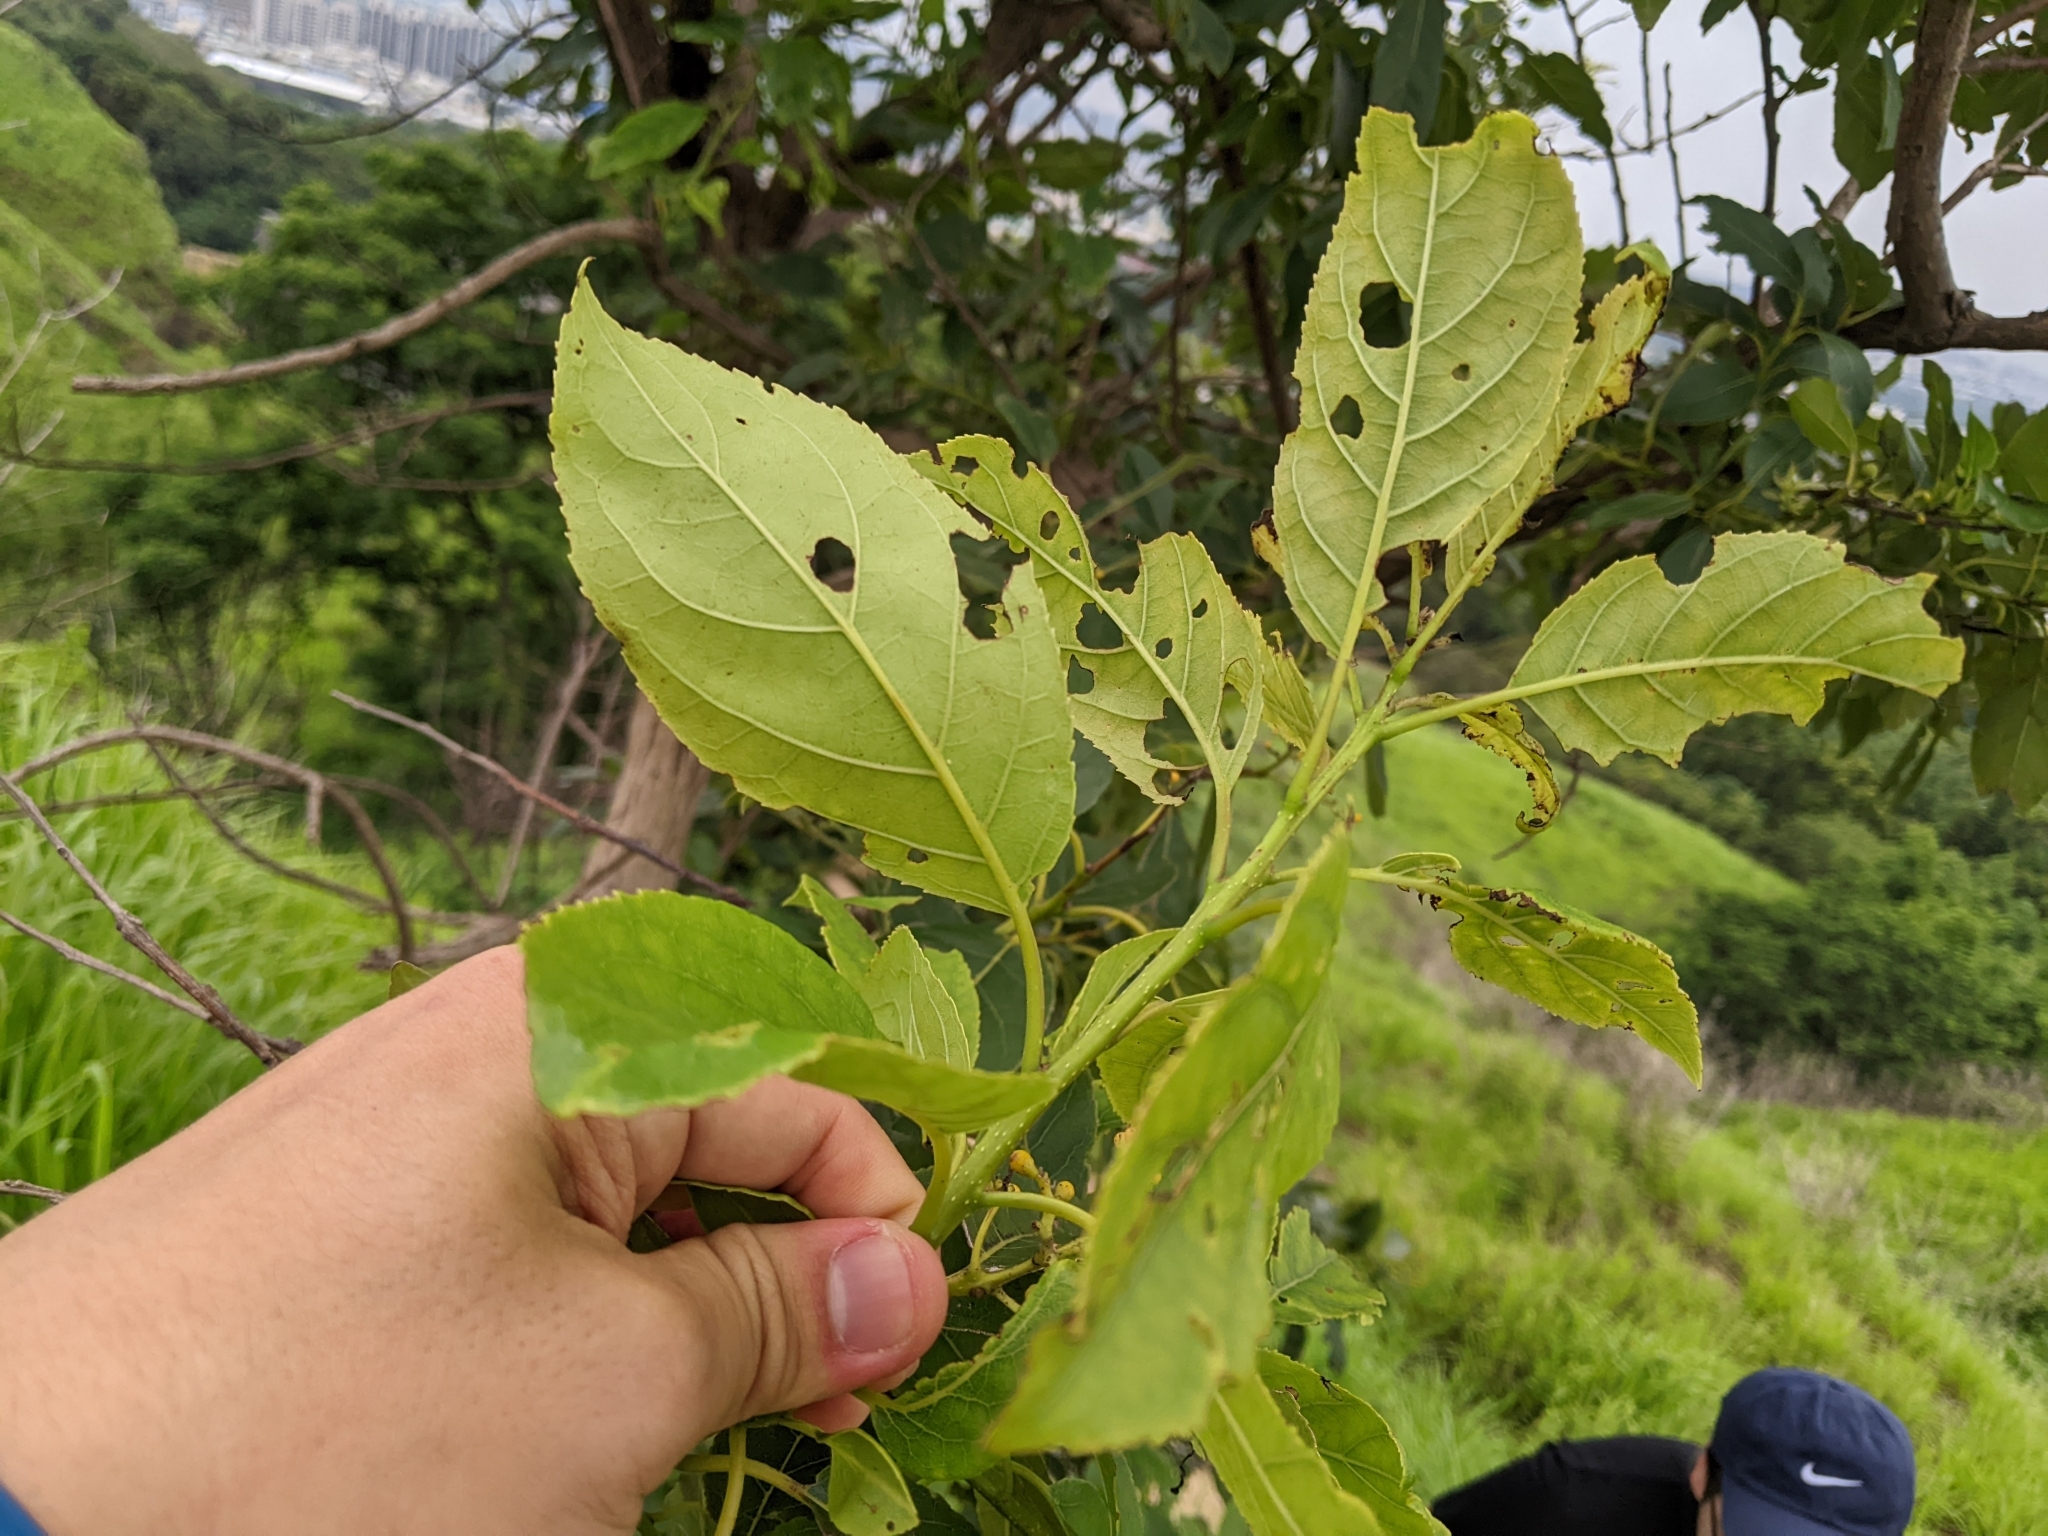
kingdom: Plantae
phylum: Tracheophyta
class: Magnoliopsida
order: Boraginales
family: Ehretiaceae
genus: Ehretia
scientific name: Ehretia acuminata
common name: Kodo wood
